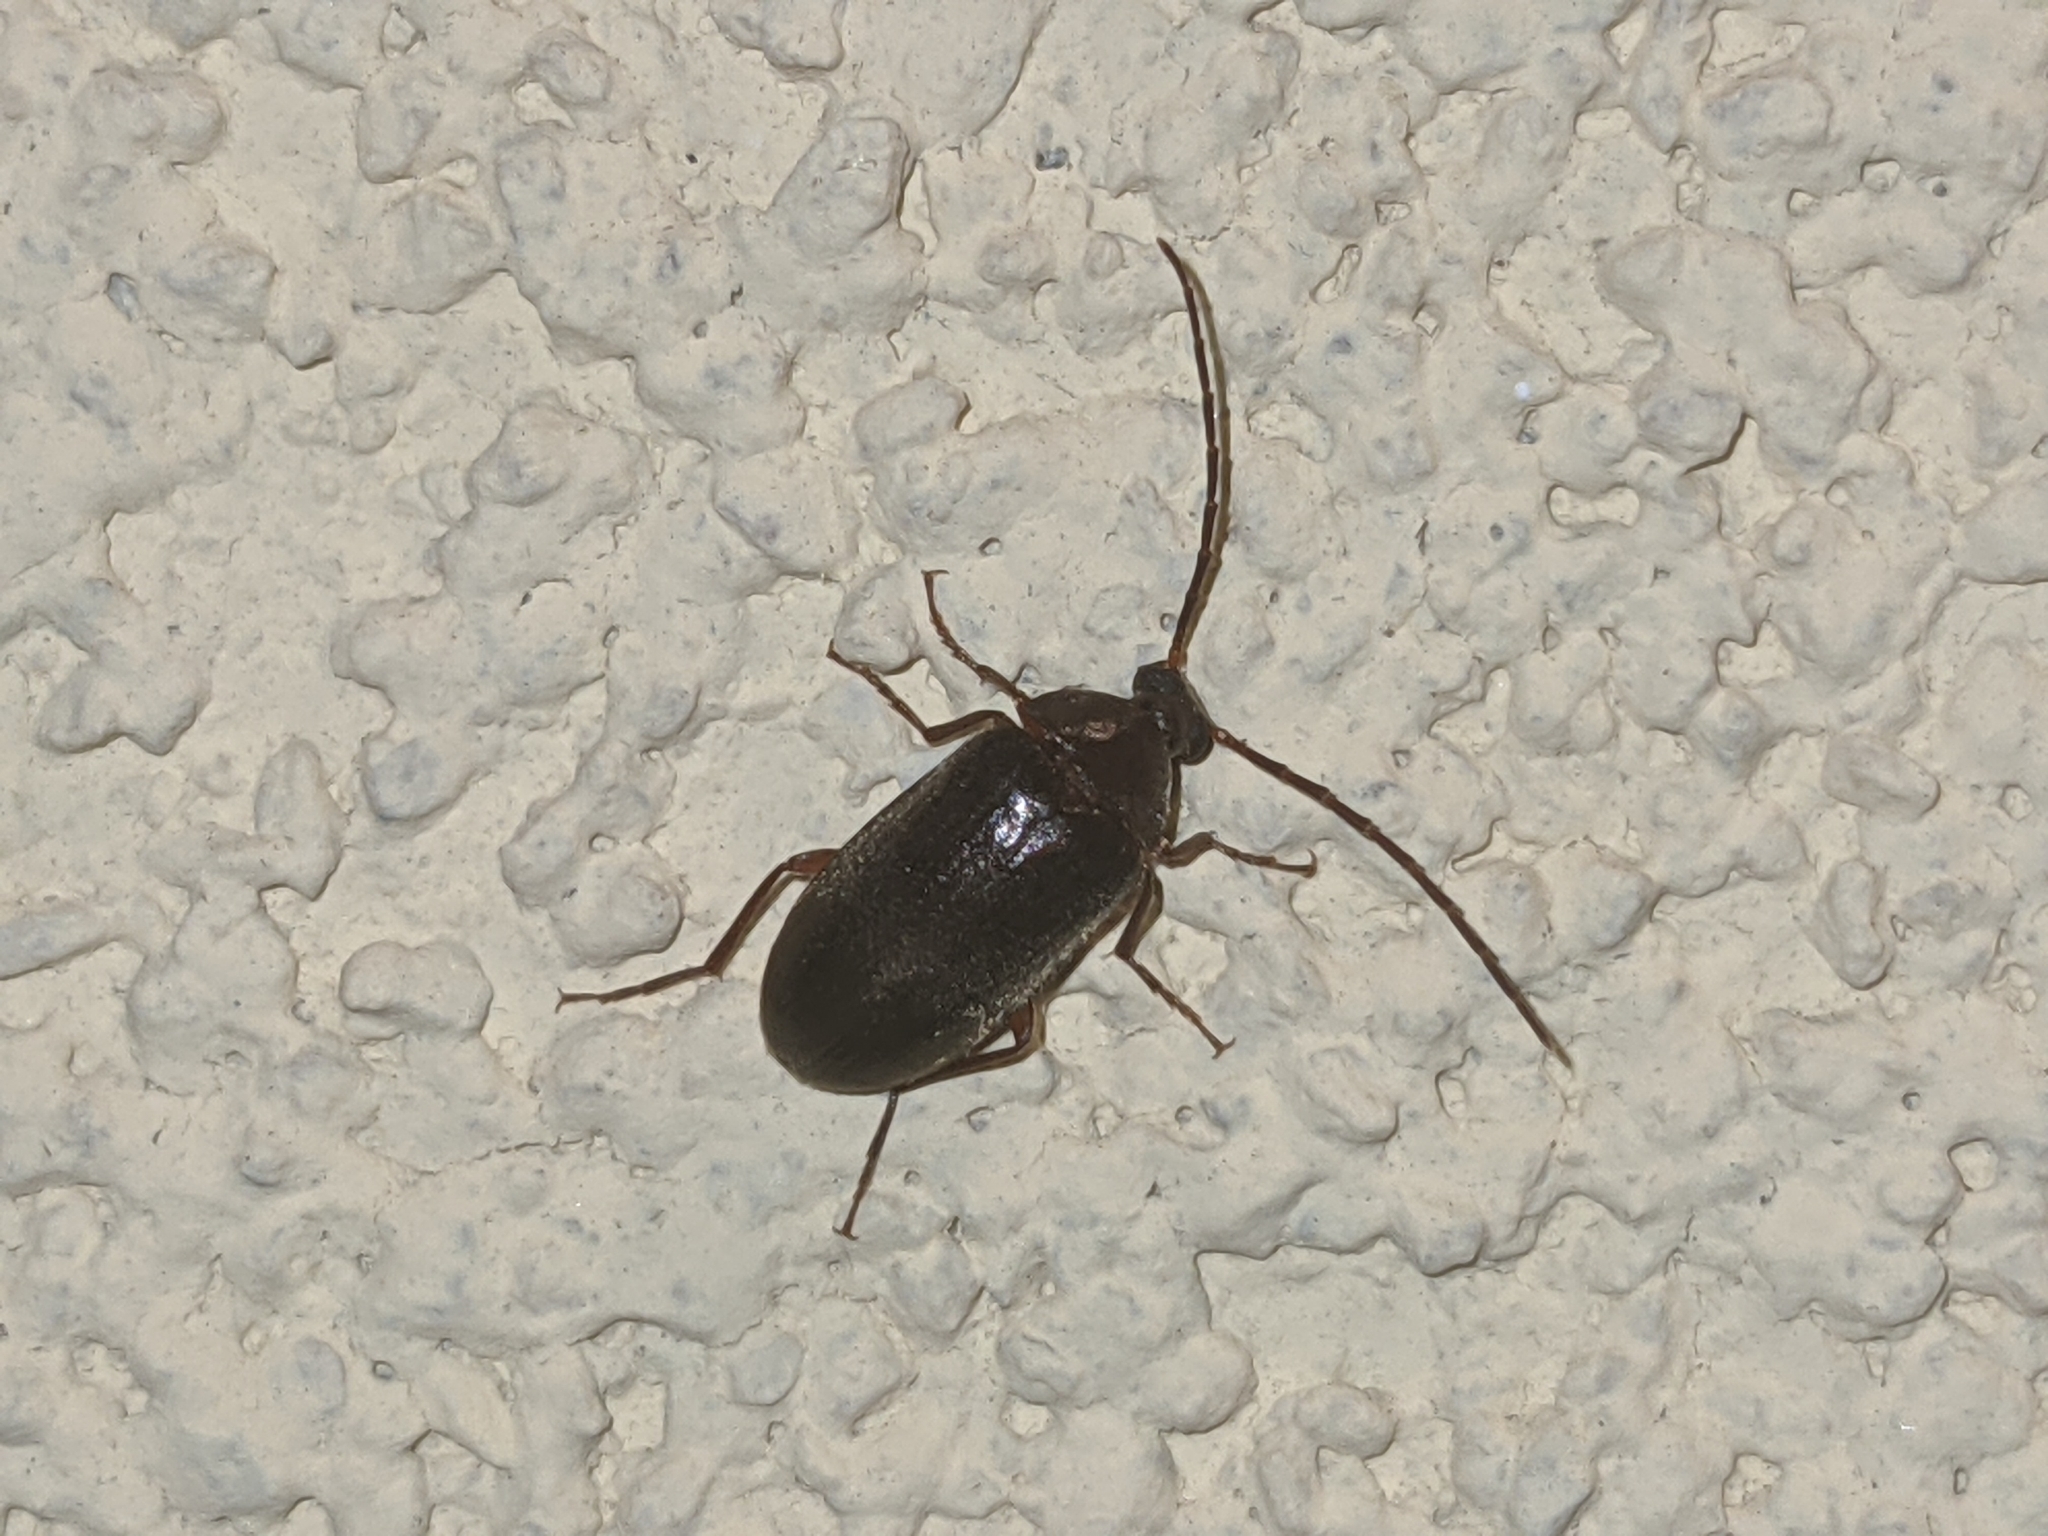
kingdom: Animalia
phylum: Arthropoda
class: Insecta
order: Coleoptera
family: Tenebrionidae
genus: Allecula
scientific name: Allecula morio
